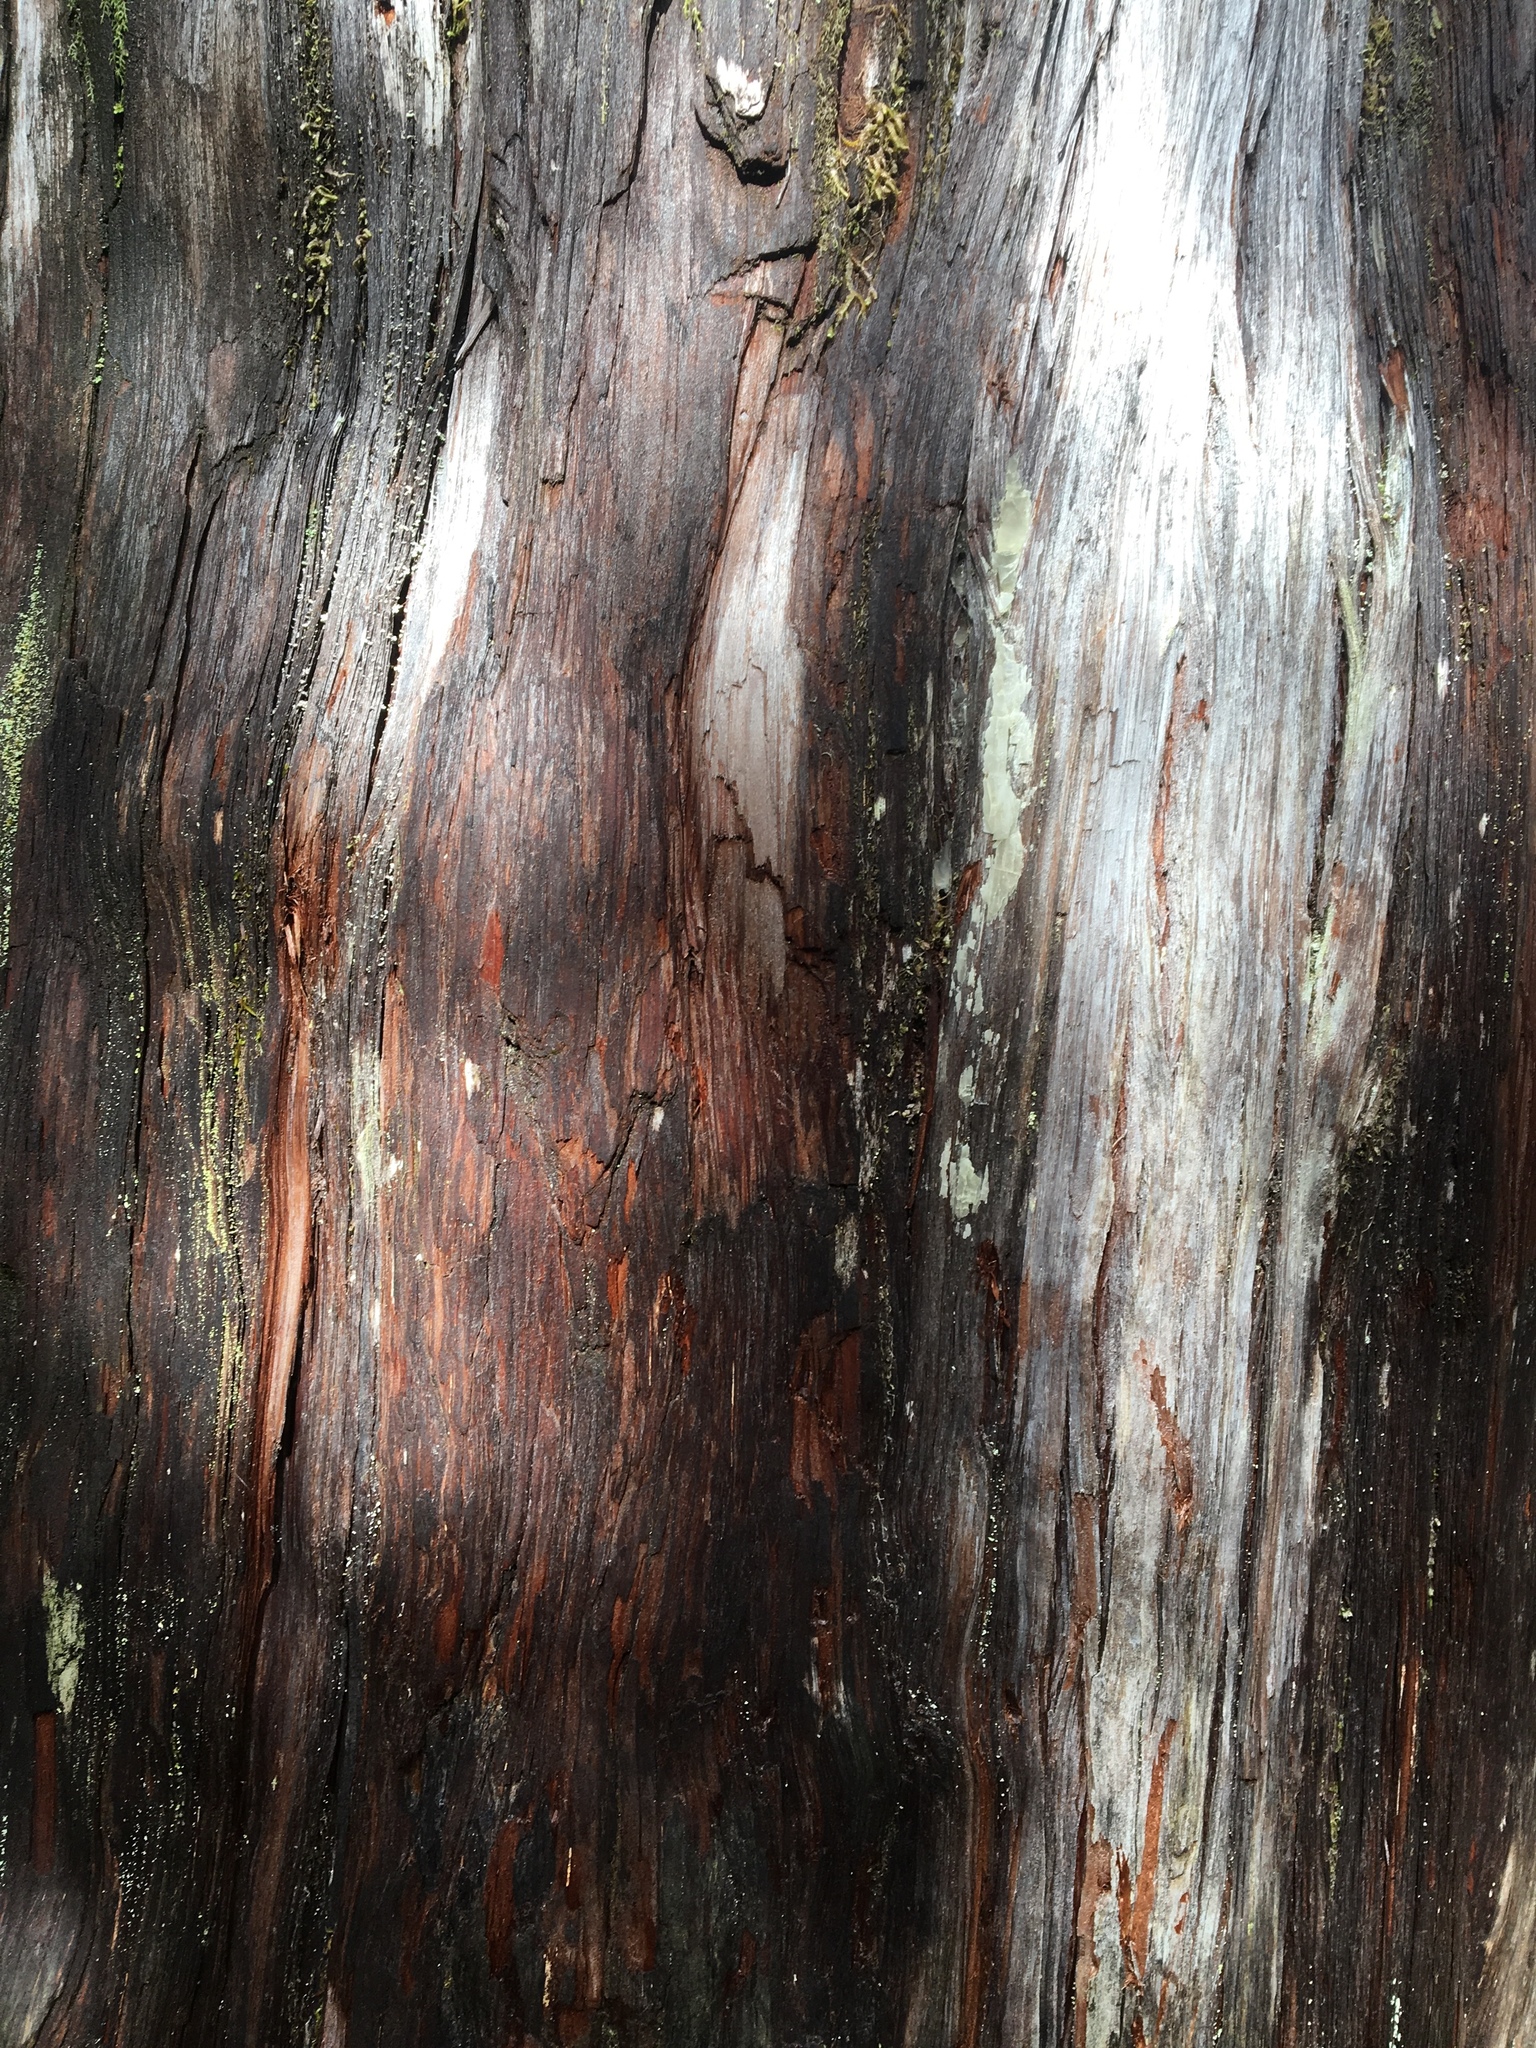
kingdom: Plantae
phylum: Tracheophyta
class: Pinopsida
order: Pinales
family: Cupressaceae
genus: Fitzroya
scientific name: Fitzroya cupressoides
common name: Patagonian cypress
